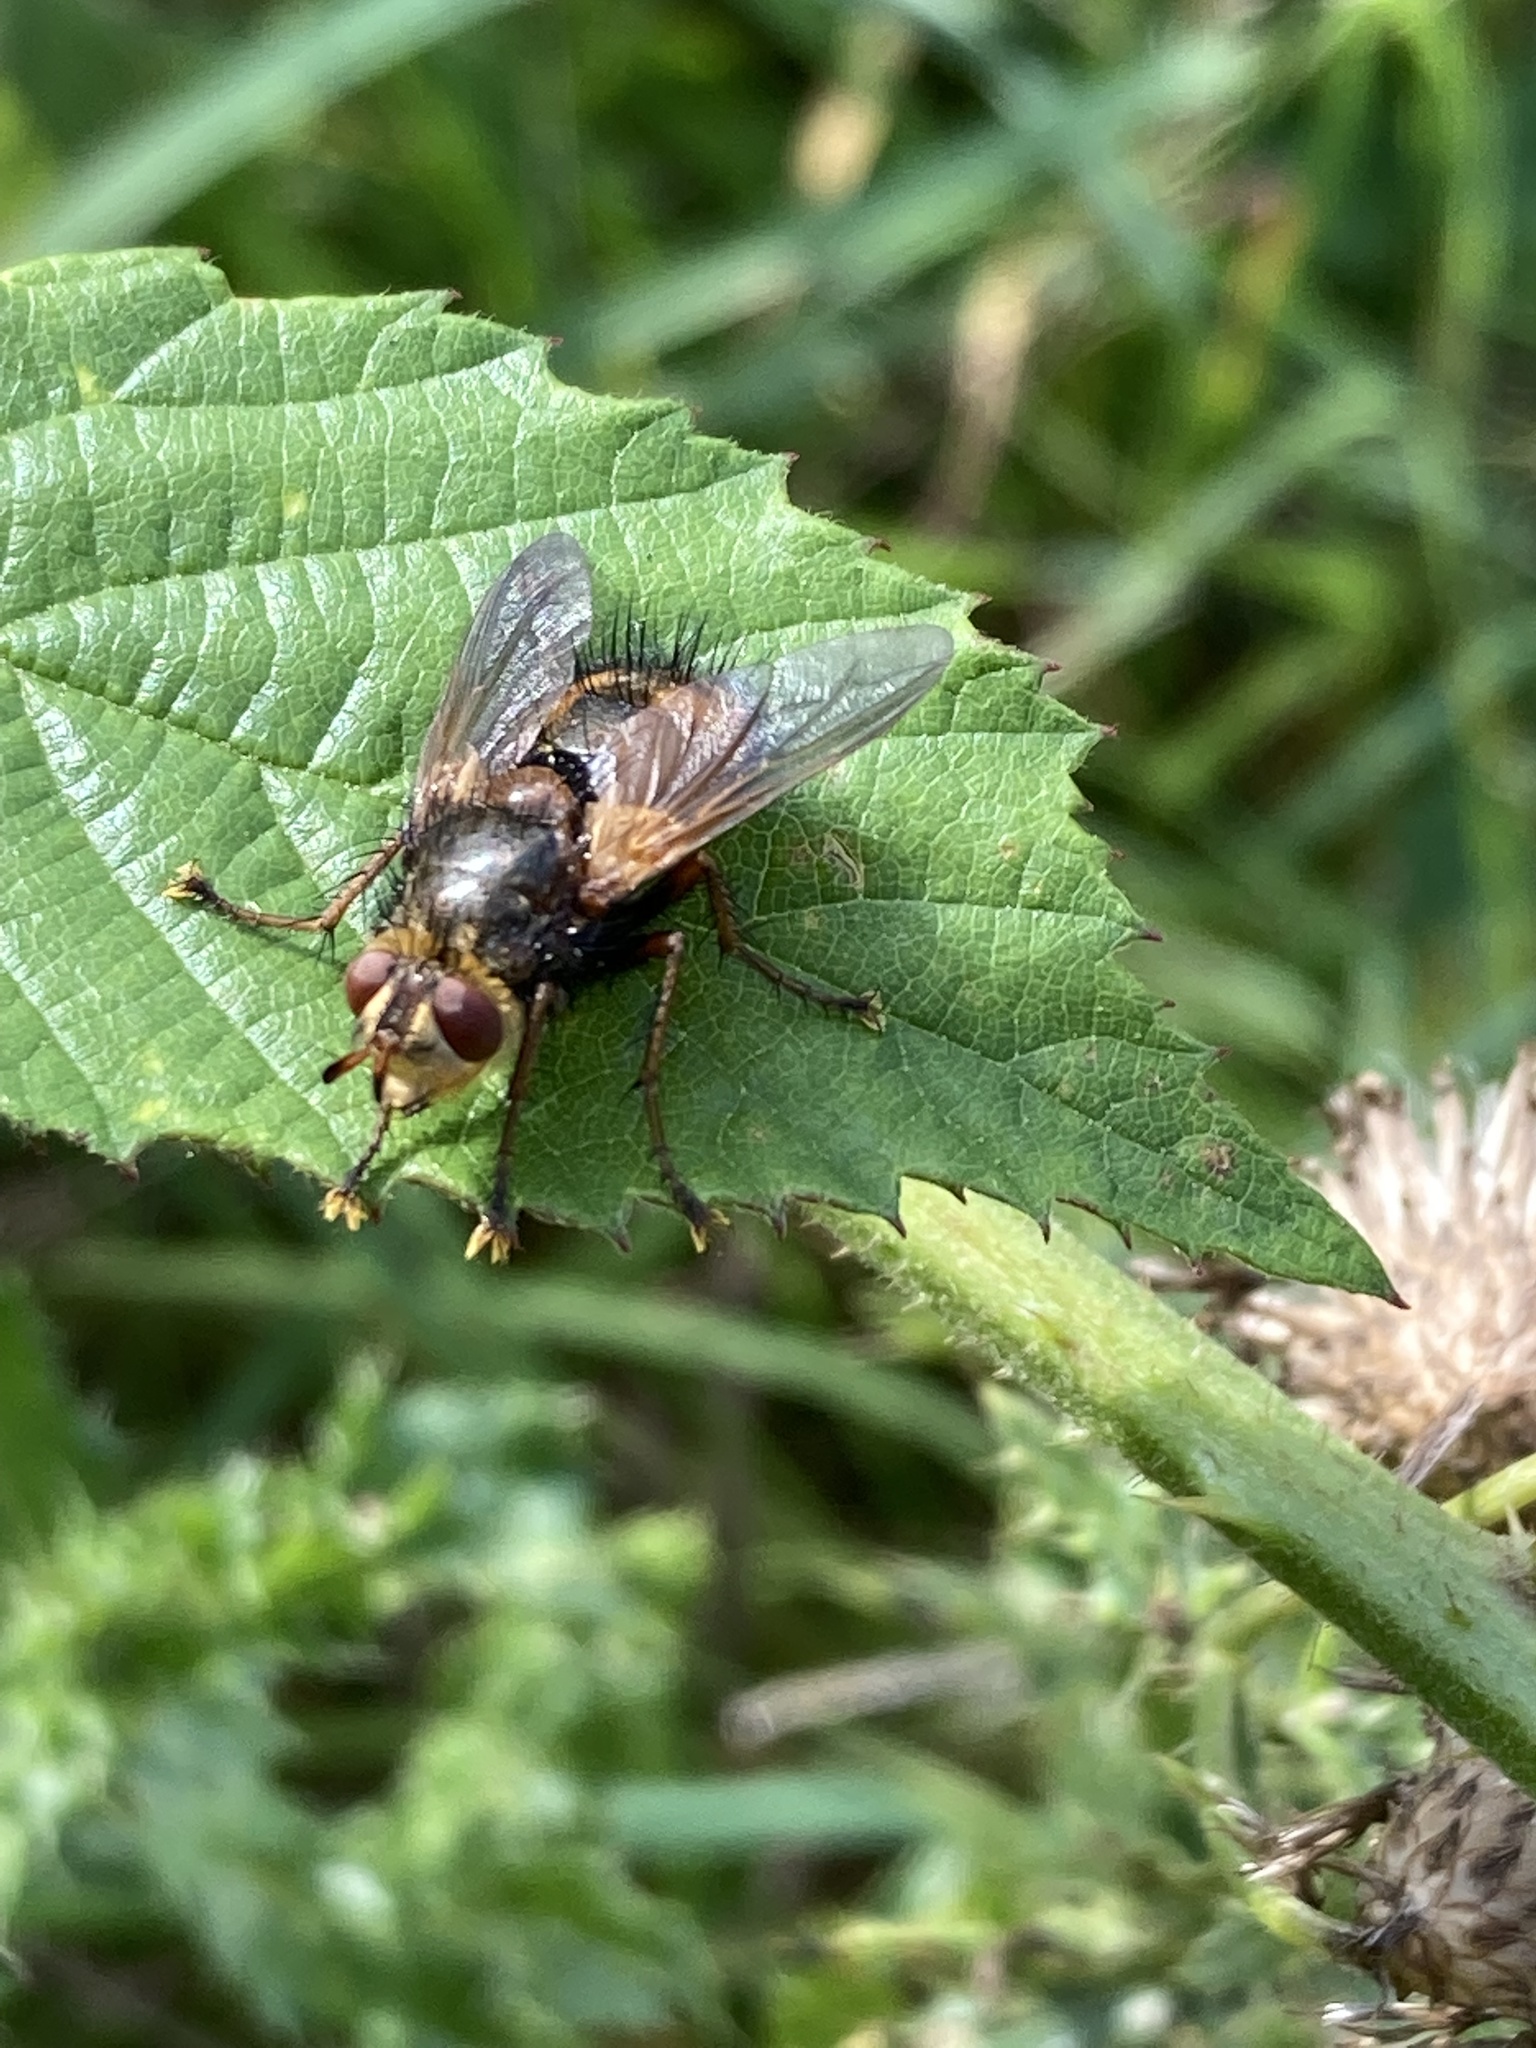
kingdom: Animalia
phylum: Arthropoda
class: Insecta
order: Diptera
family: Tachinidae
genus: Tachina
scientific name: Tachina fera
